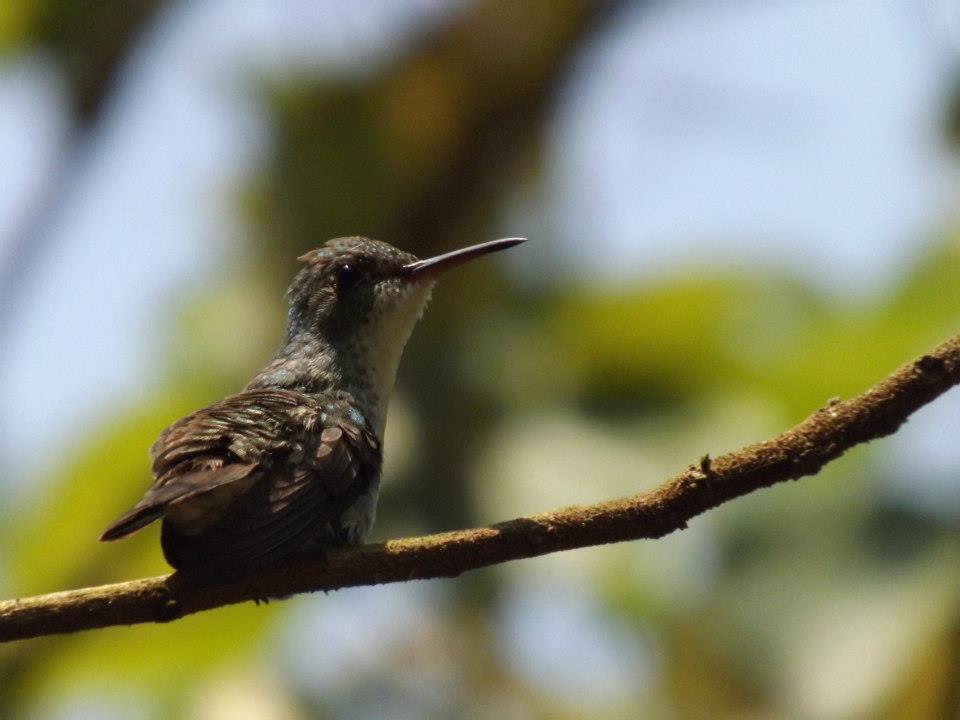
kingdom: Animalia
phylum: Chordata
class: Aves
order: Apodiformes
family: Trochilidae
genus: Saucerottia
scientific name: Saucerottia cyanocephala
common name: Azure-crowned hummingbird
